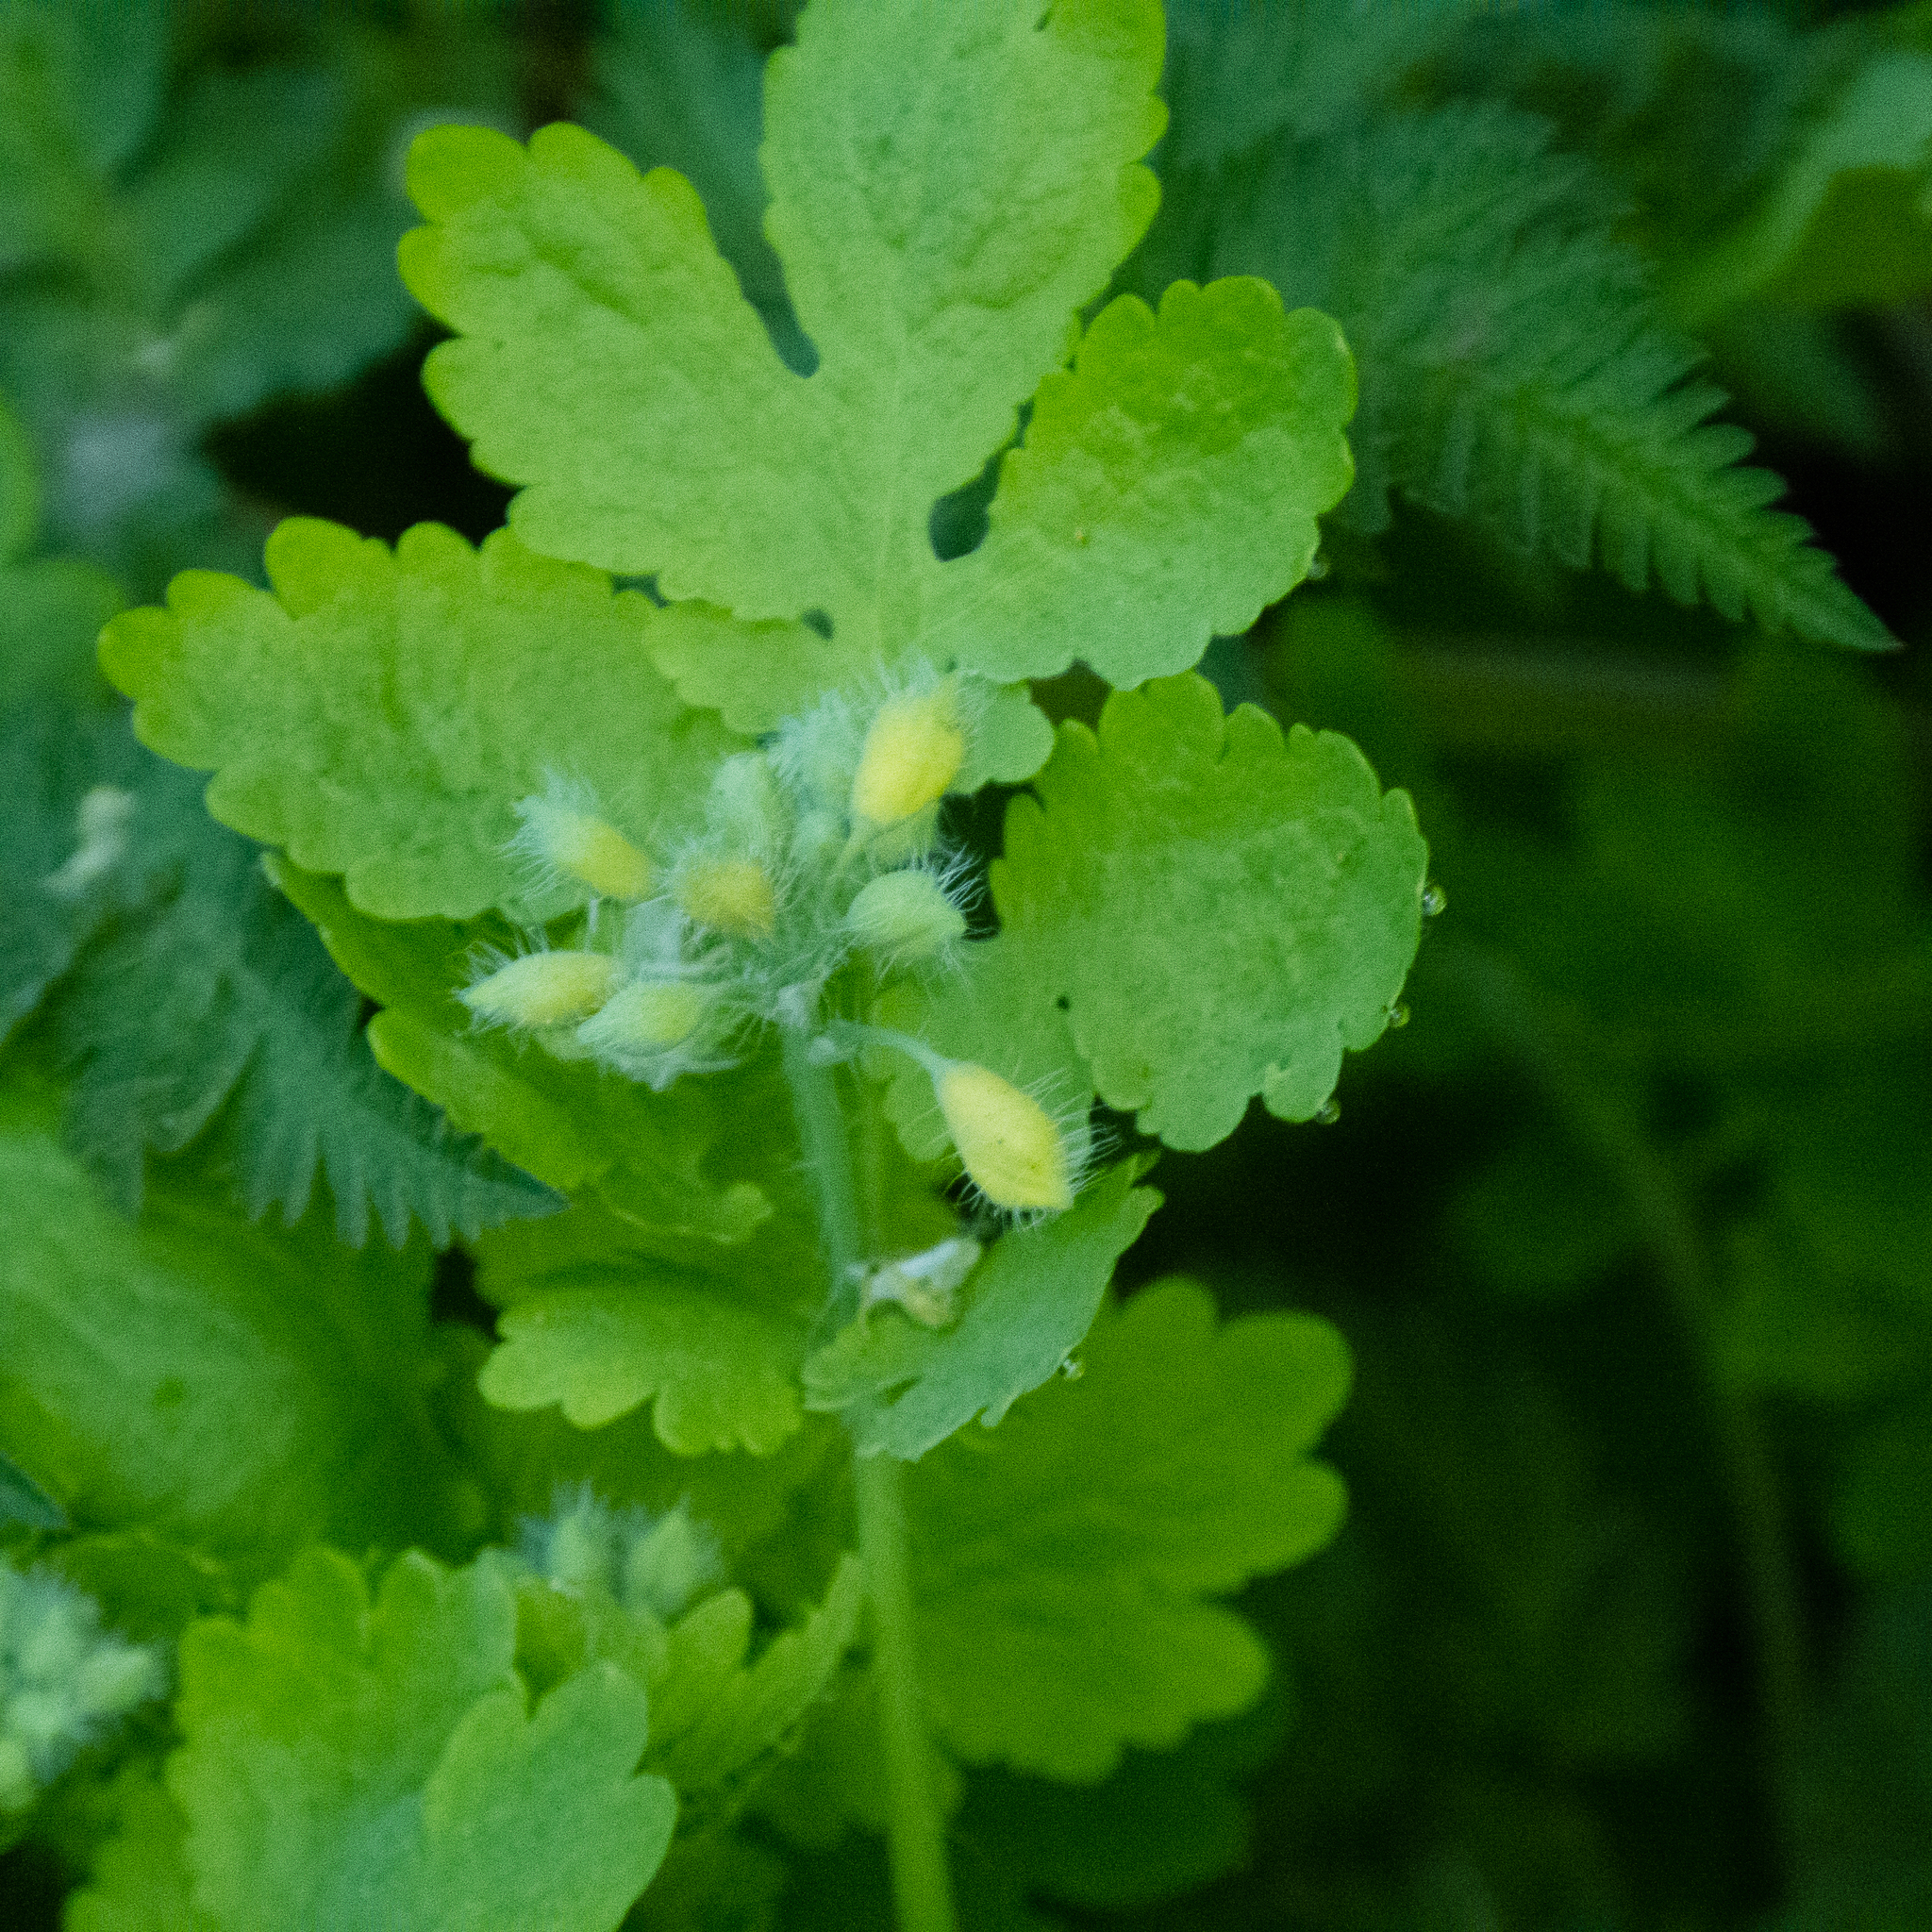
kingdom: Plantae
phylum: Tracheophyta
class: Magnoliopsida
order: Ranunculales
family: Papaveraceae
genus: Chelidonium
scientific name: Chelidonium majus
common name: Greater celandine
